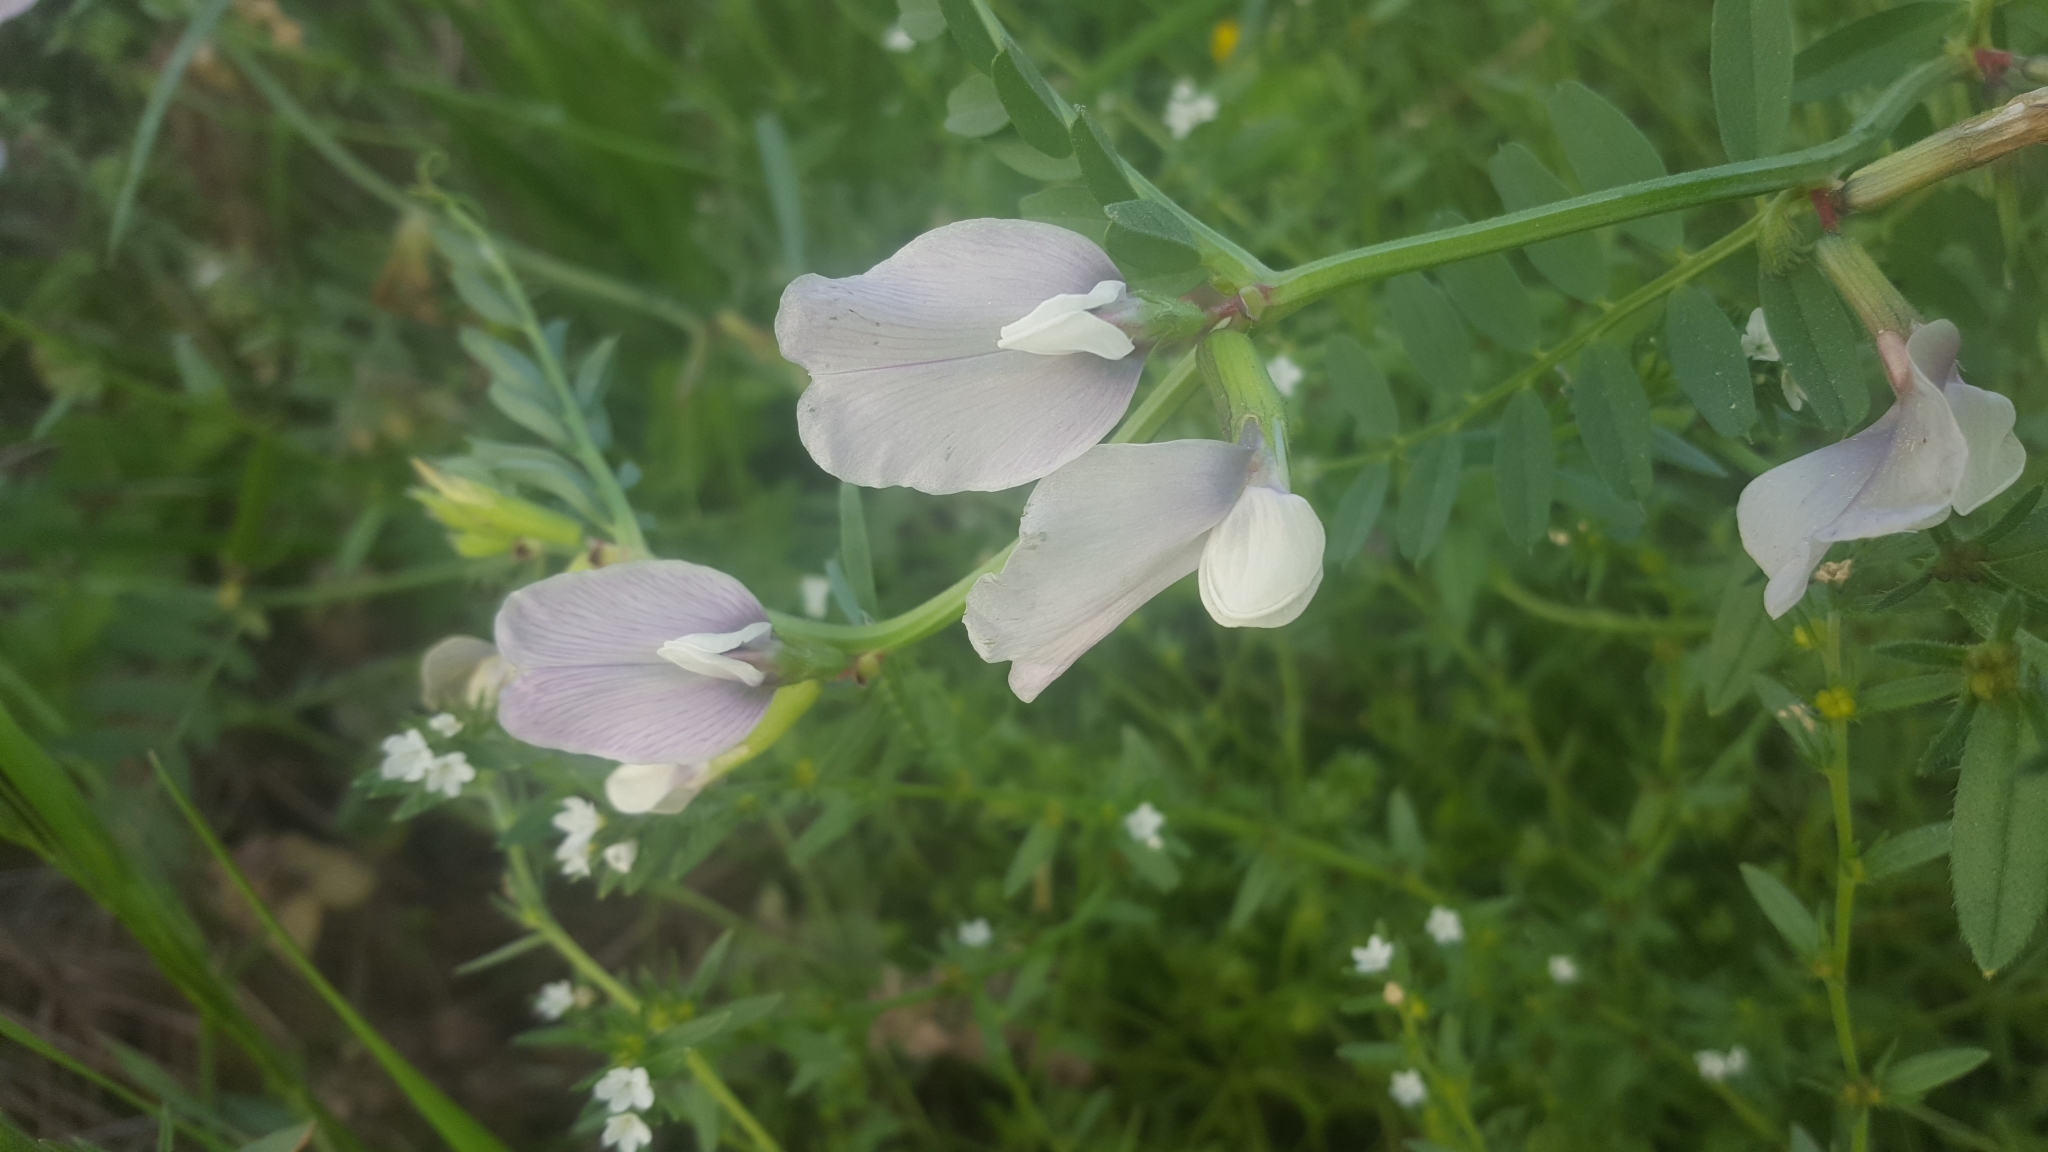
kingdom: Plantae
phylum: Tracheophyta
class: Magnoliopsida
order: Fabales
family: Fabaceae
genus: Vicia
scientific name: Vicia grandiflora
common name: Large yellow vetch
